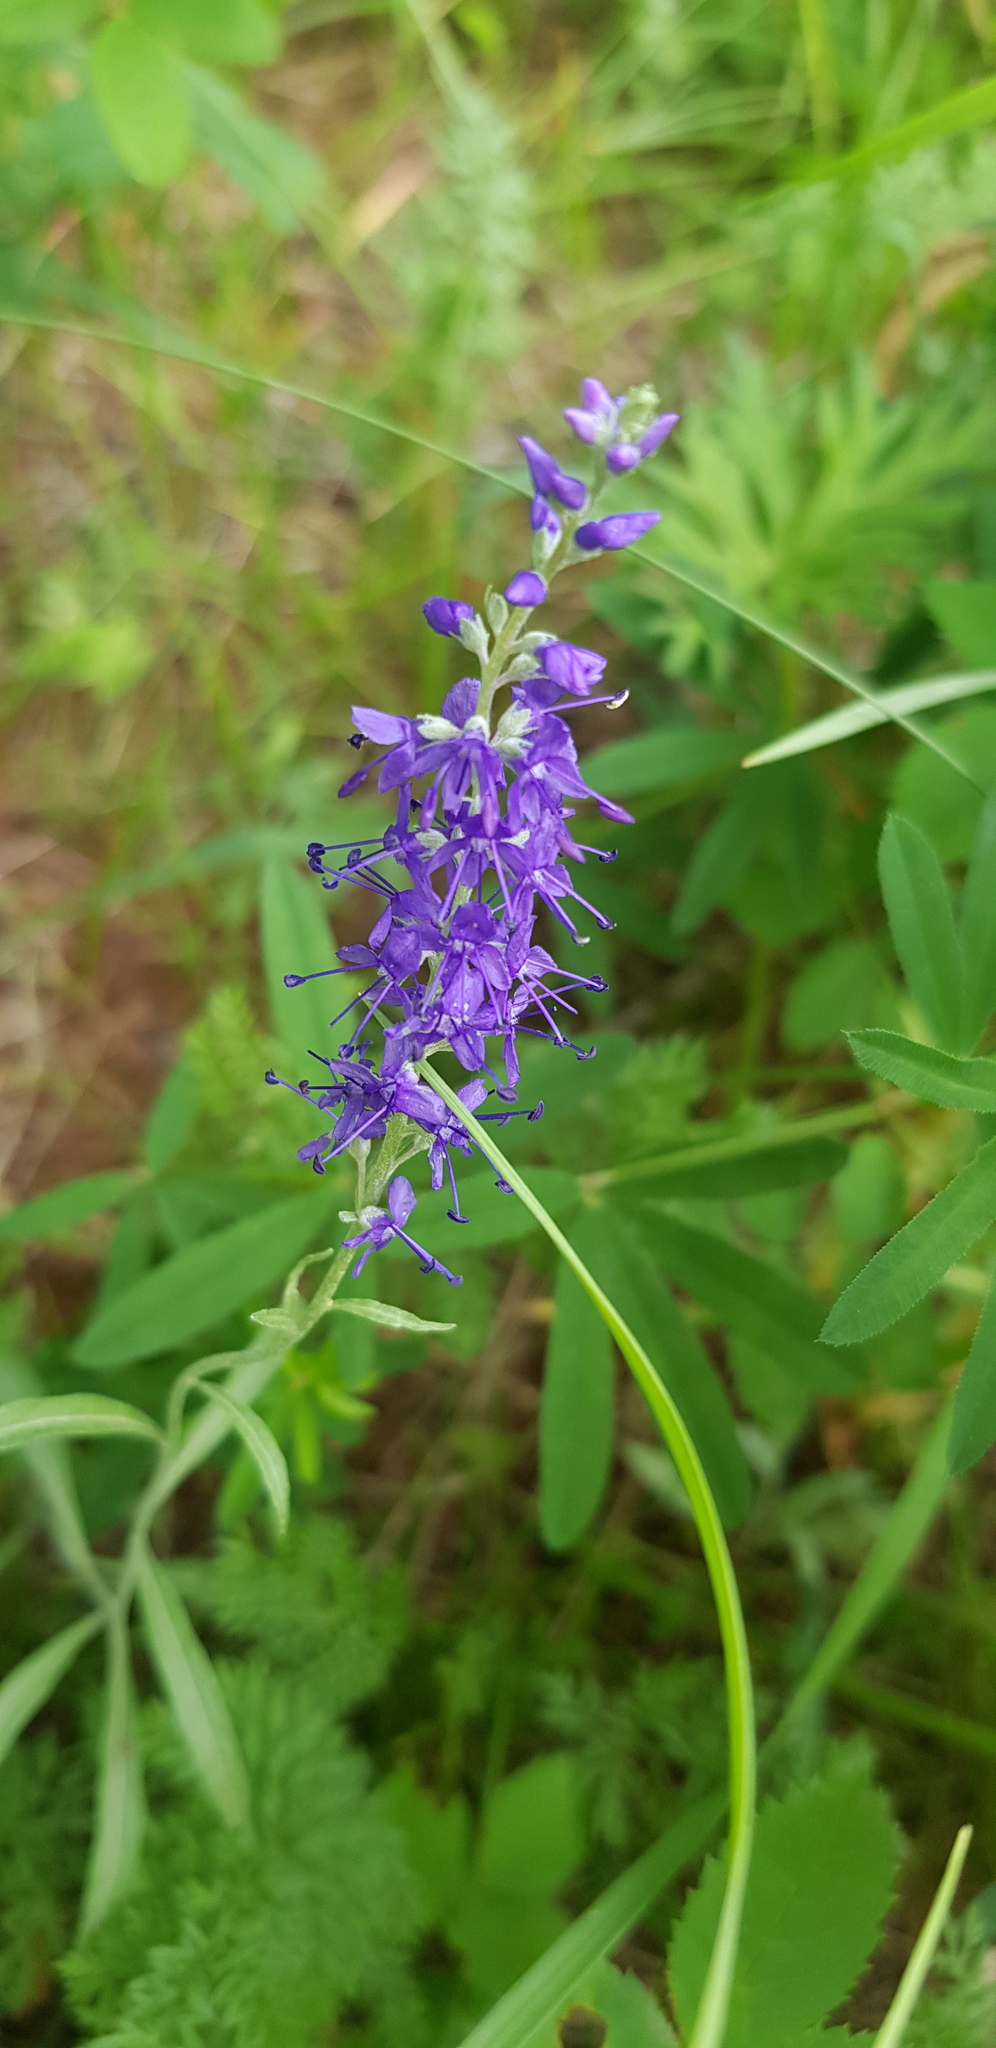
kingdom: Plantae
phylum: Tracheophyta
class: Magnoliopsida
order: Lamiales
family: Plantaginaceae
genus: Veronica
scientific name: Veronica incana
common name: Silver speedwell
